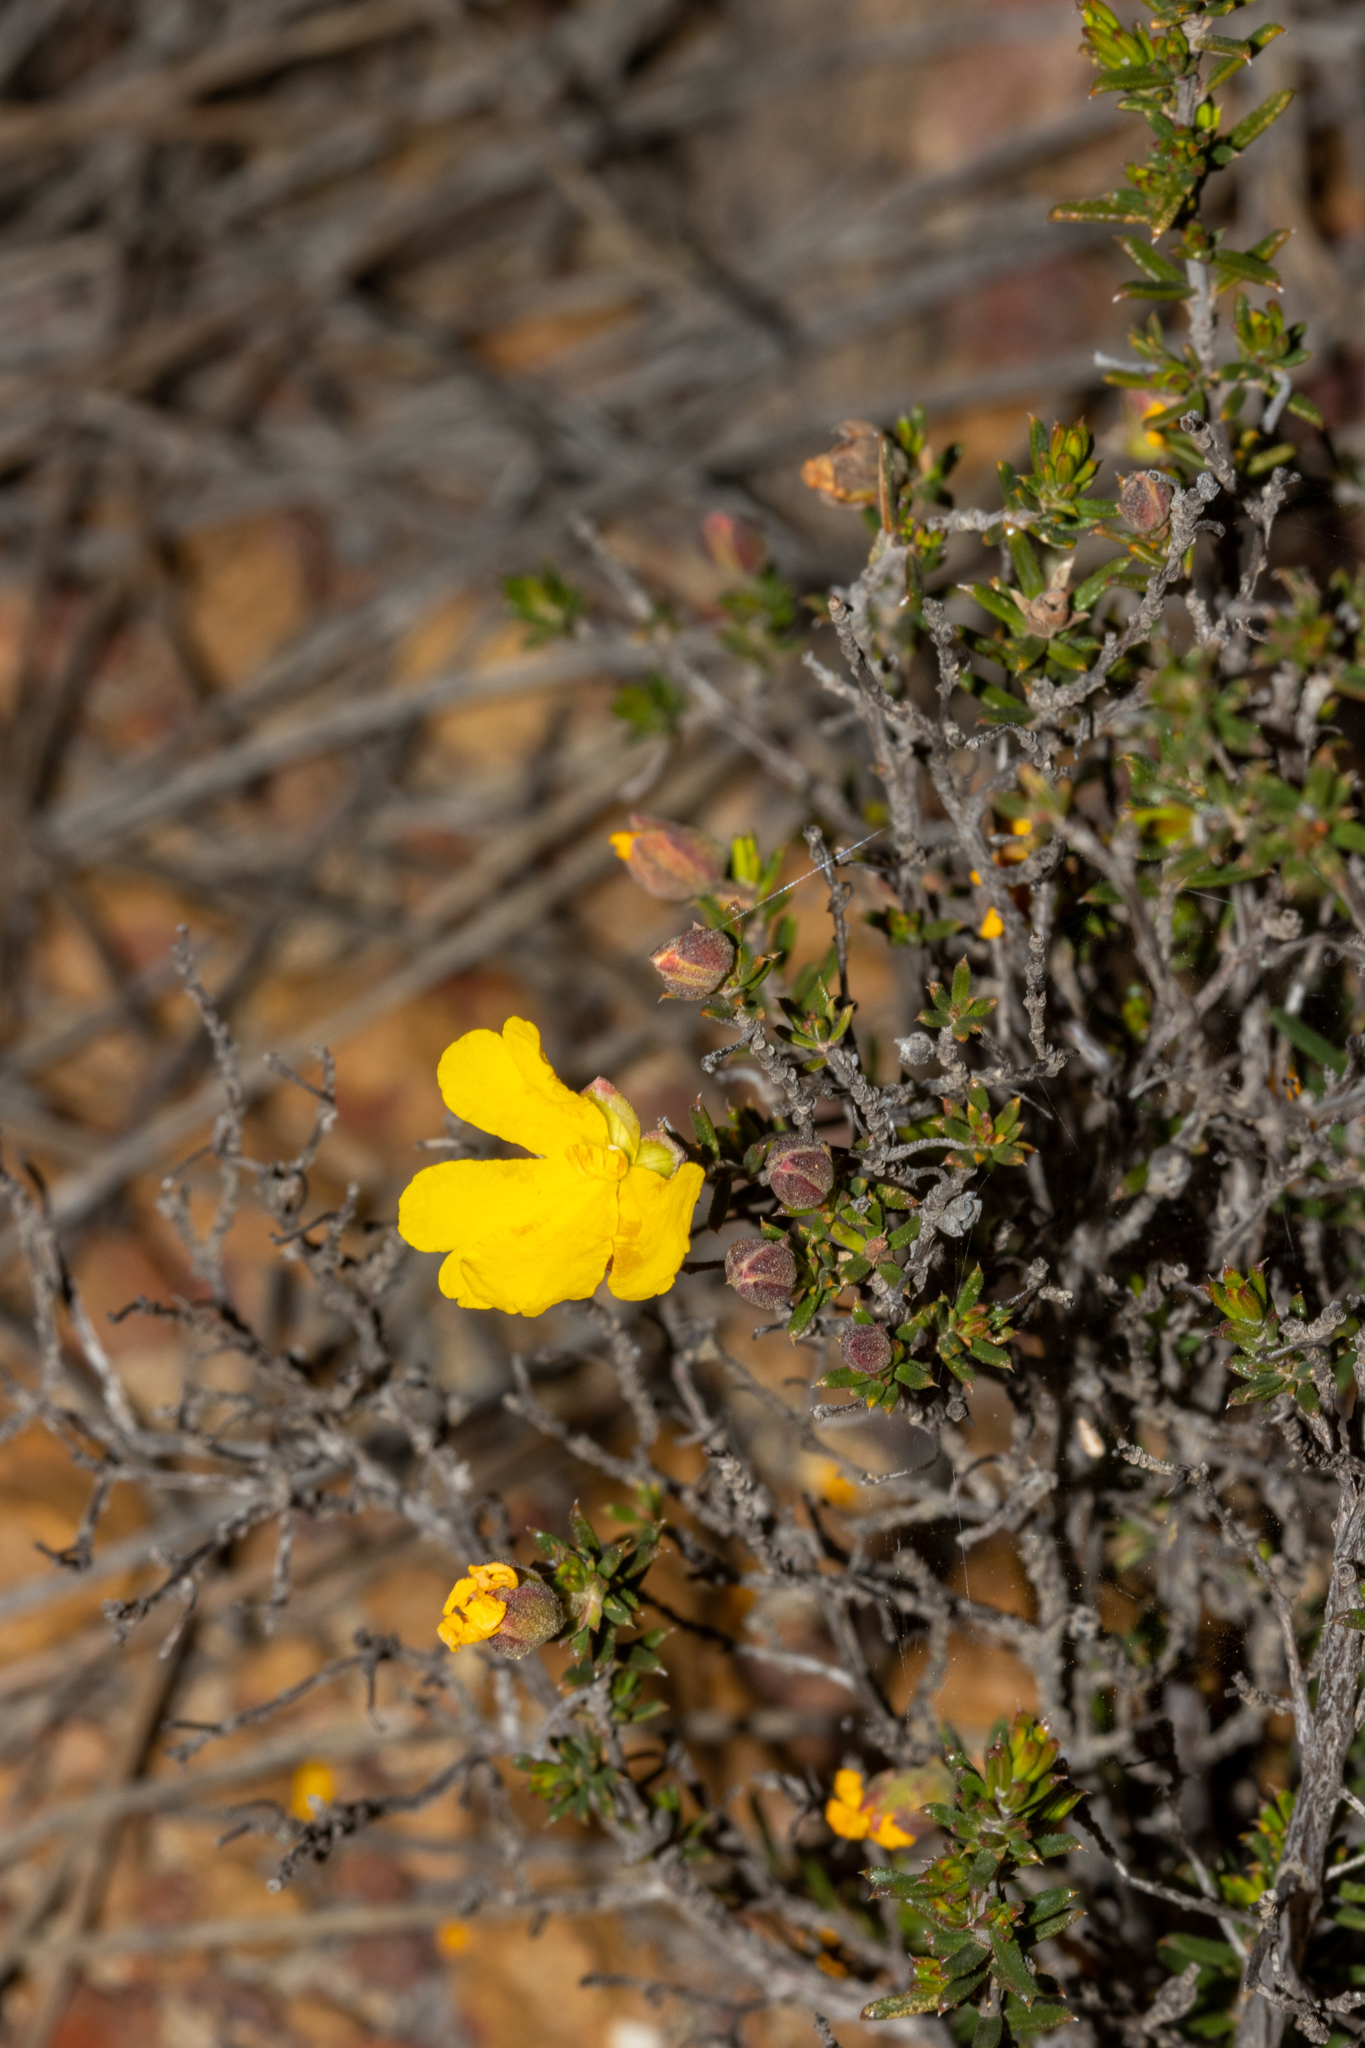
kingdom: Plantae
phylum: Tracheophyta
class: Magnoliopsida
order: Dilleniales
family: Dilleniaceae
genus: Hibbertia
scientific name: Hibbertia eatoniae
